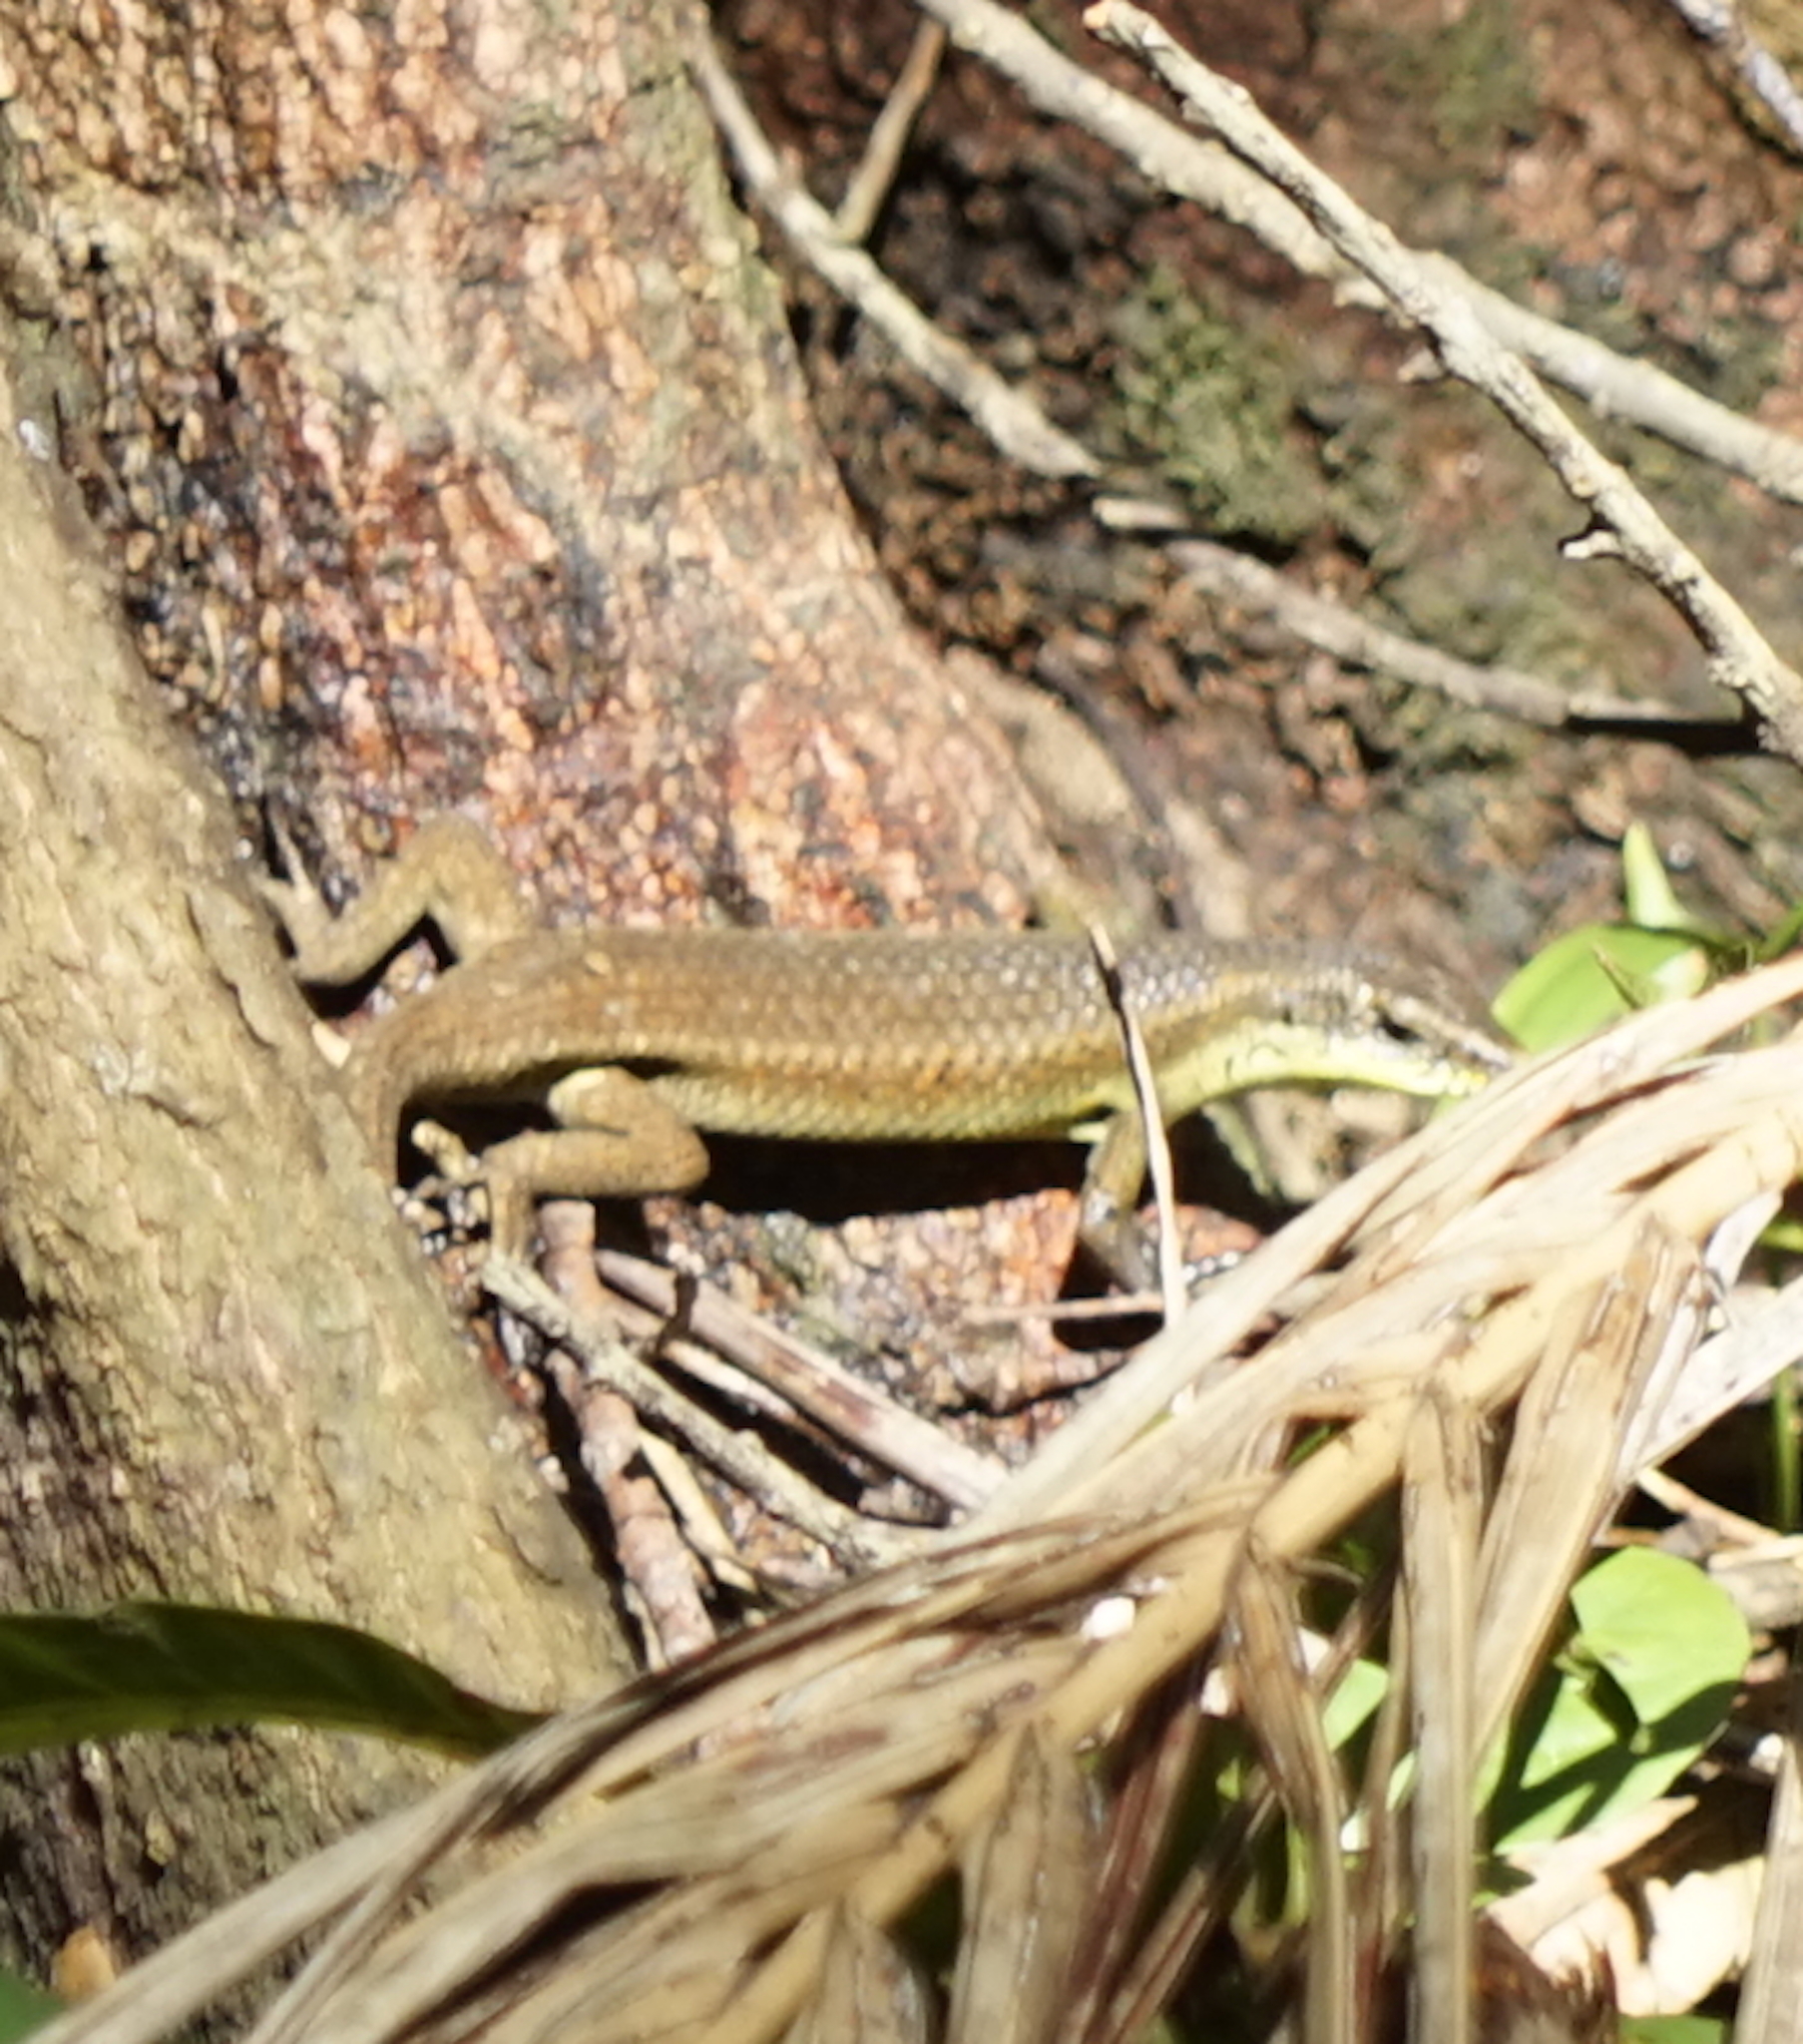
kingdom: Animalia
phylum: Chordata
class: Squamata
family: Scincidae
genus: Eutropis
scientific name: Eutropis rudis
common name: Rough mabuya
